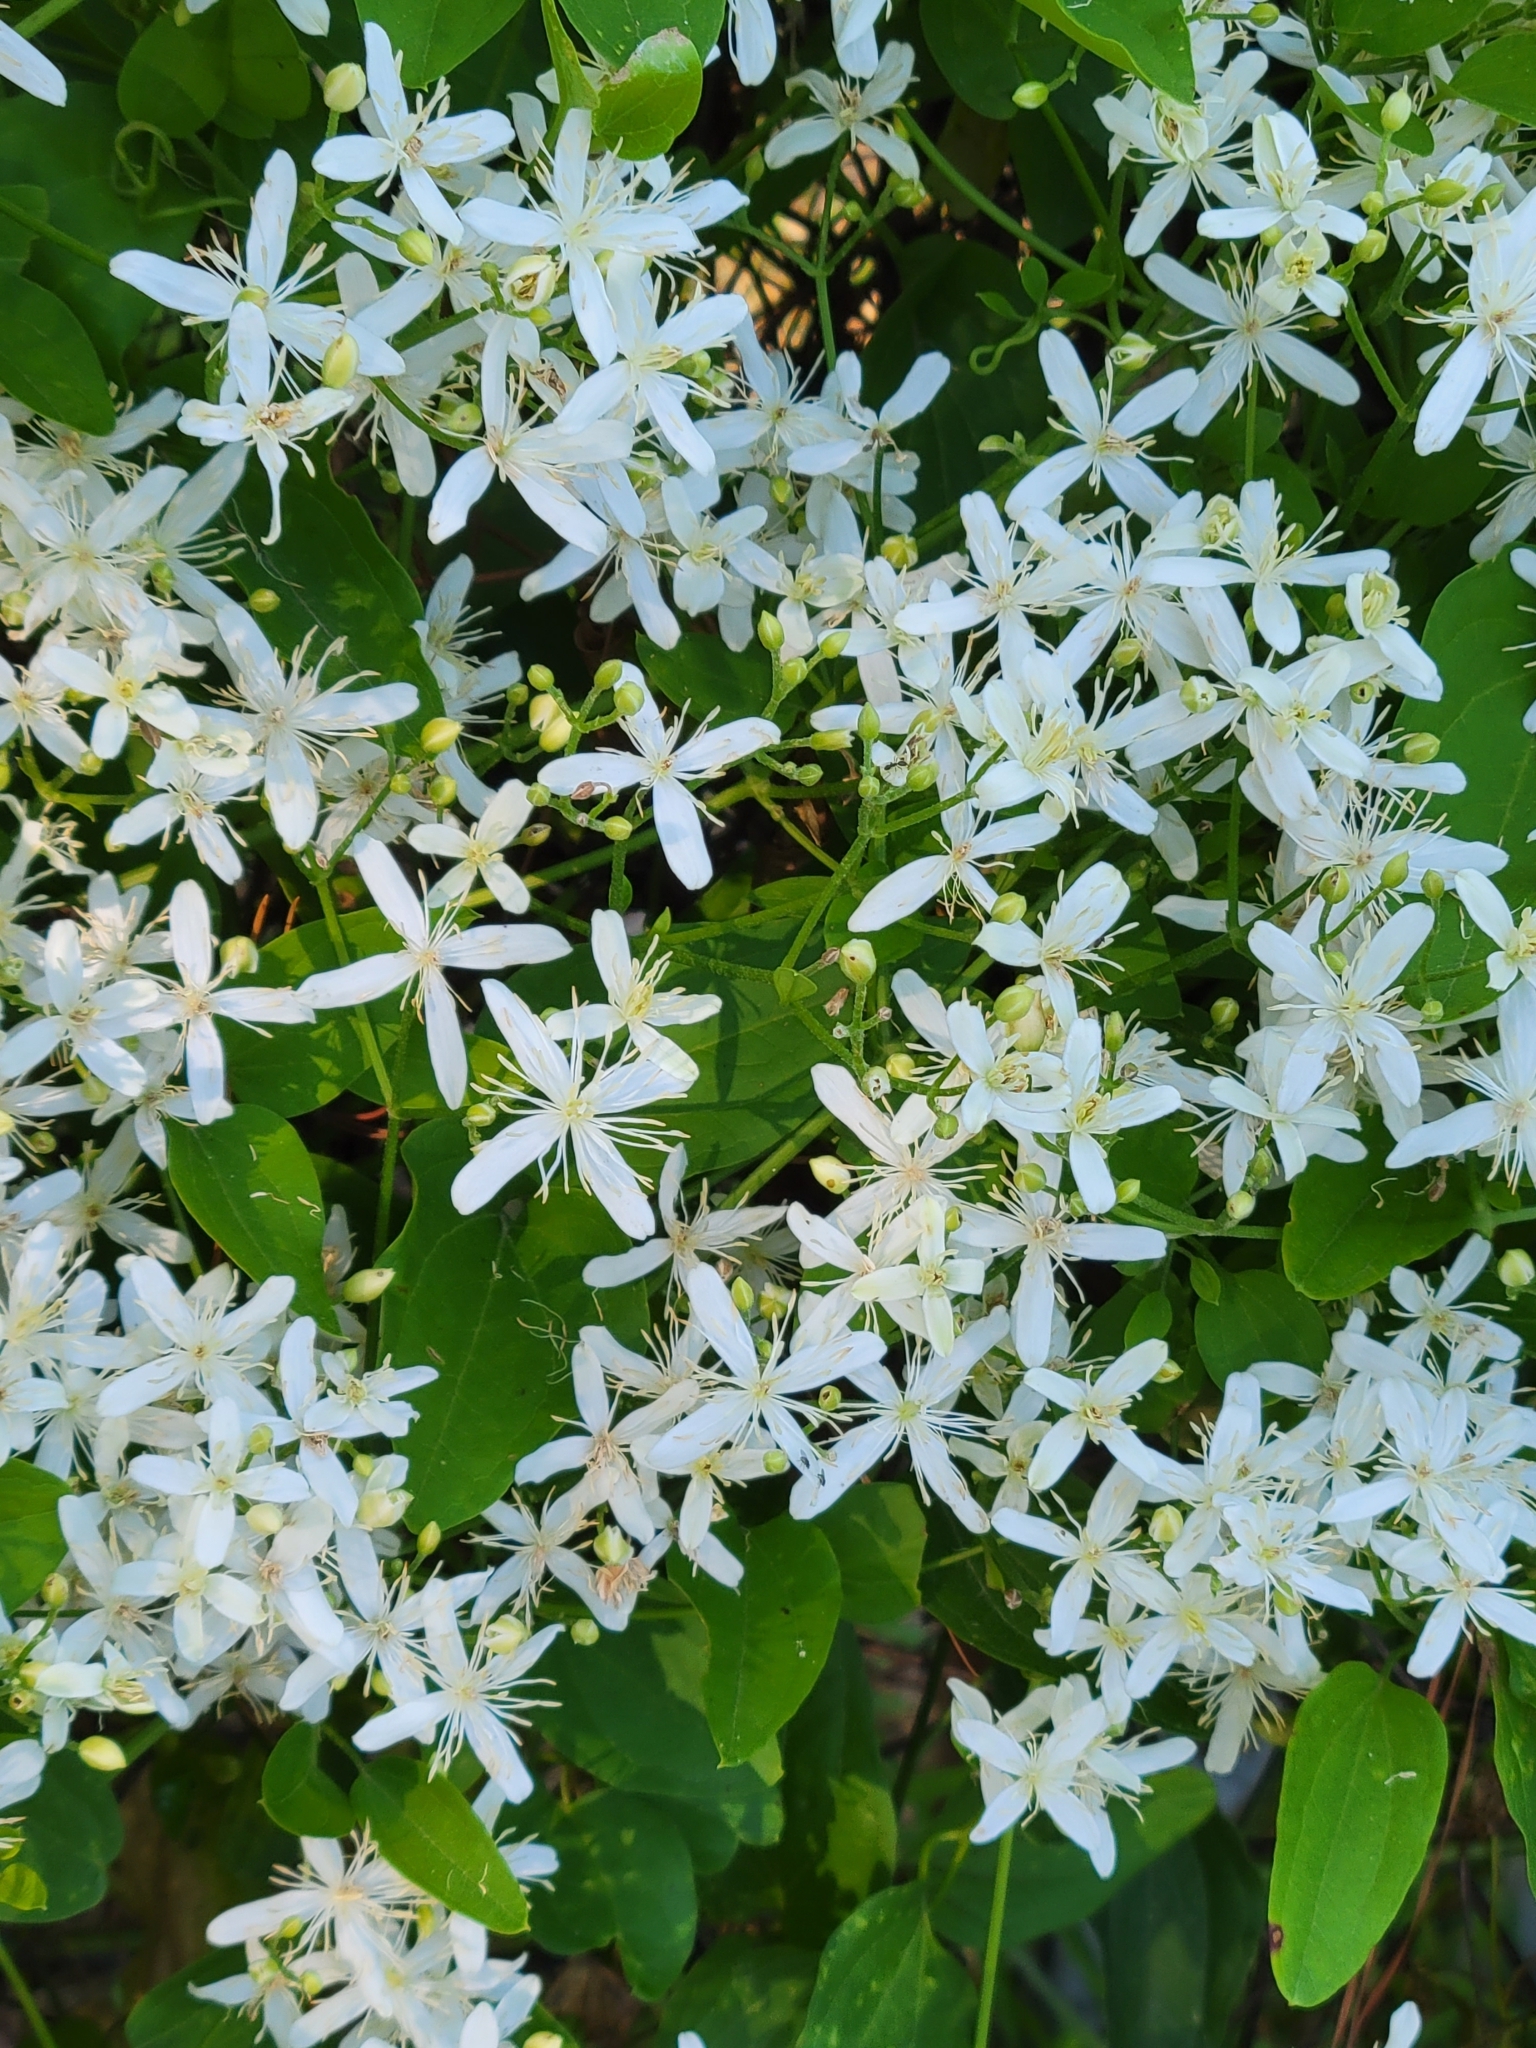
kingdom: Plantae
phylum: Tracheophyta
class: Magnoliopsida
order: Ranunculales
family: Ranunculaceae
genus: Clematis
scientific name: Clematis terniflora
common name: Sweet autumn clematis
